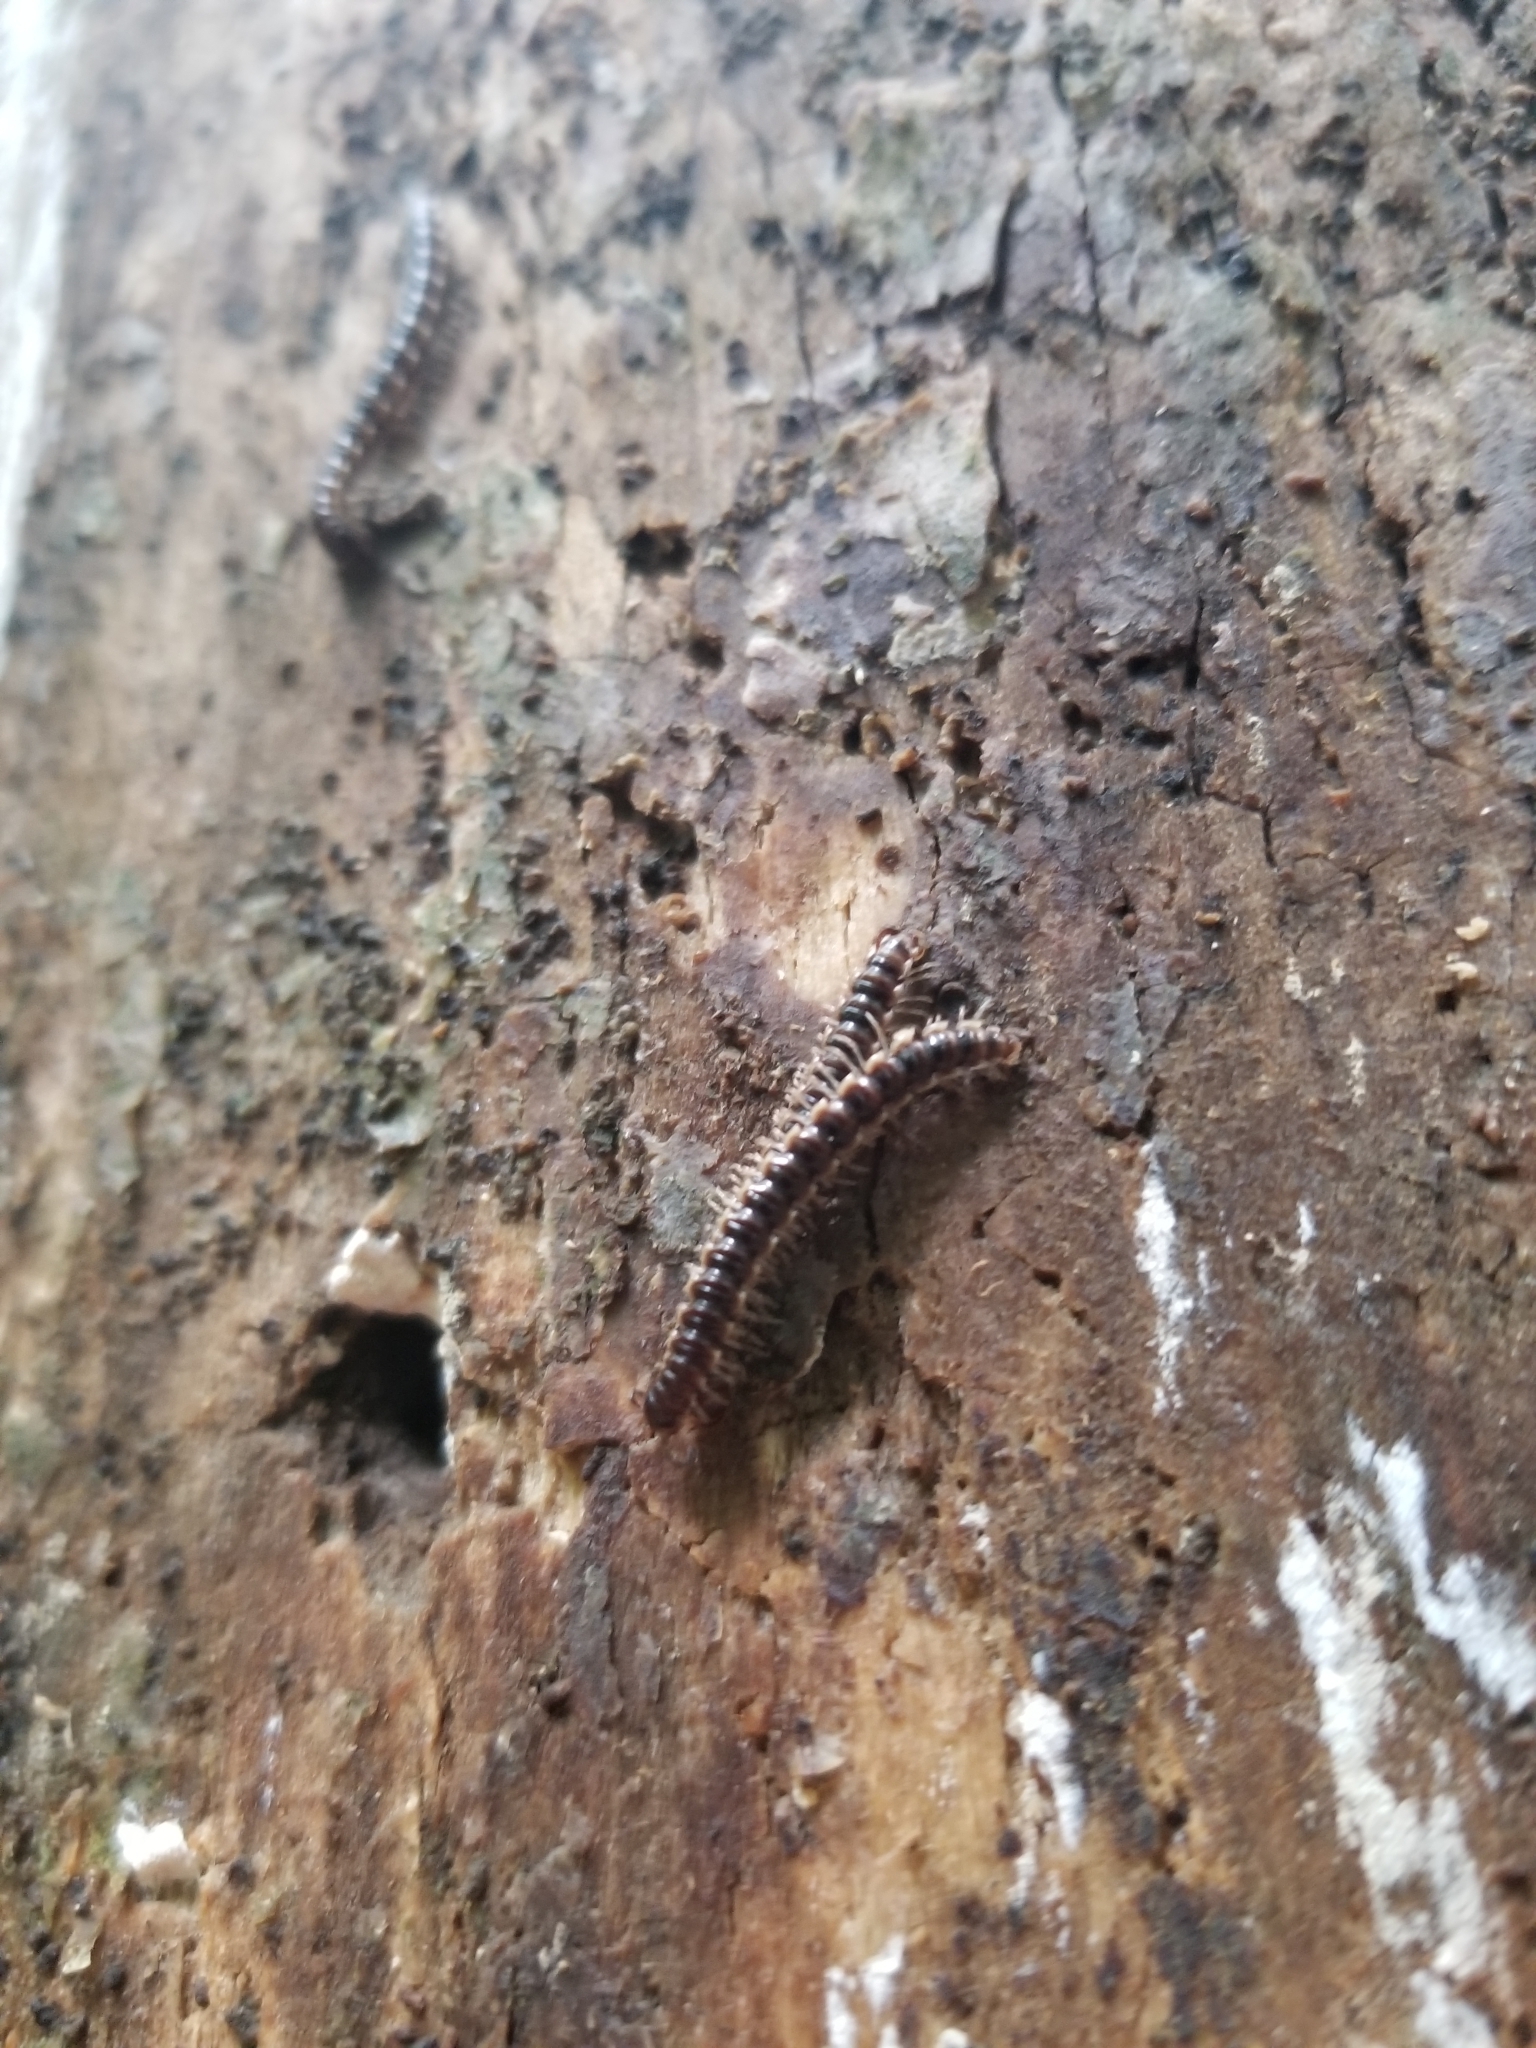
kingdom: Animalia
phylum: Arthropoda
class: Diplopoda
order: Polydesmida
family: Paradoxosomatidae
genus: Oxidus
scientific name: Oxidus gracilis
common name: Greenhouse millipede
